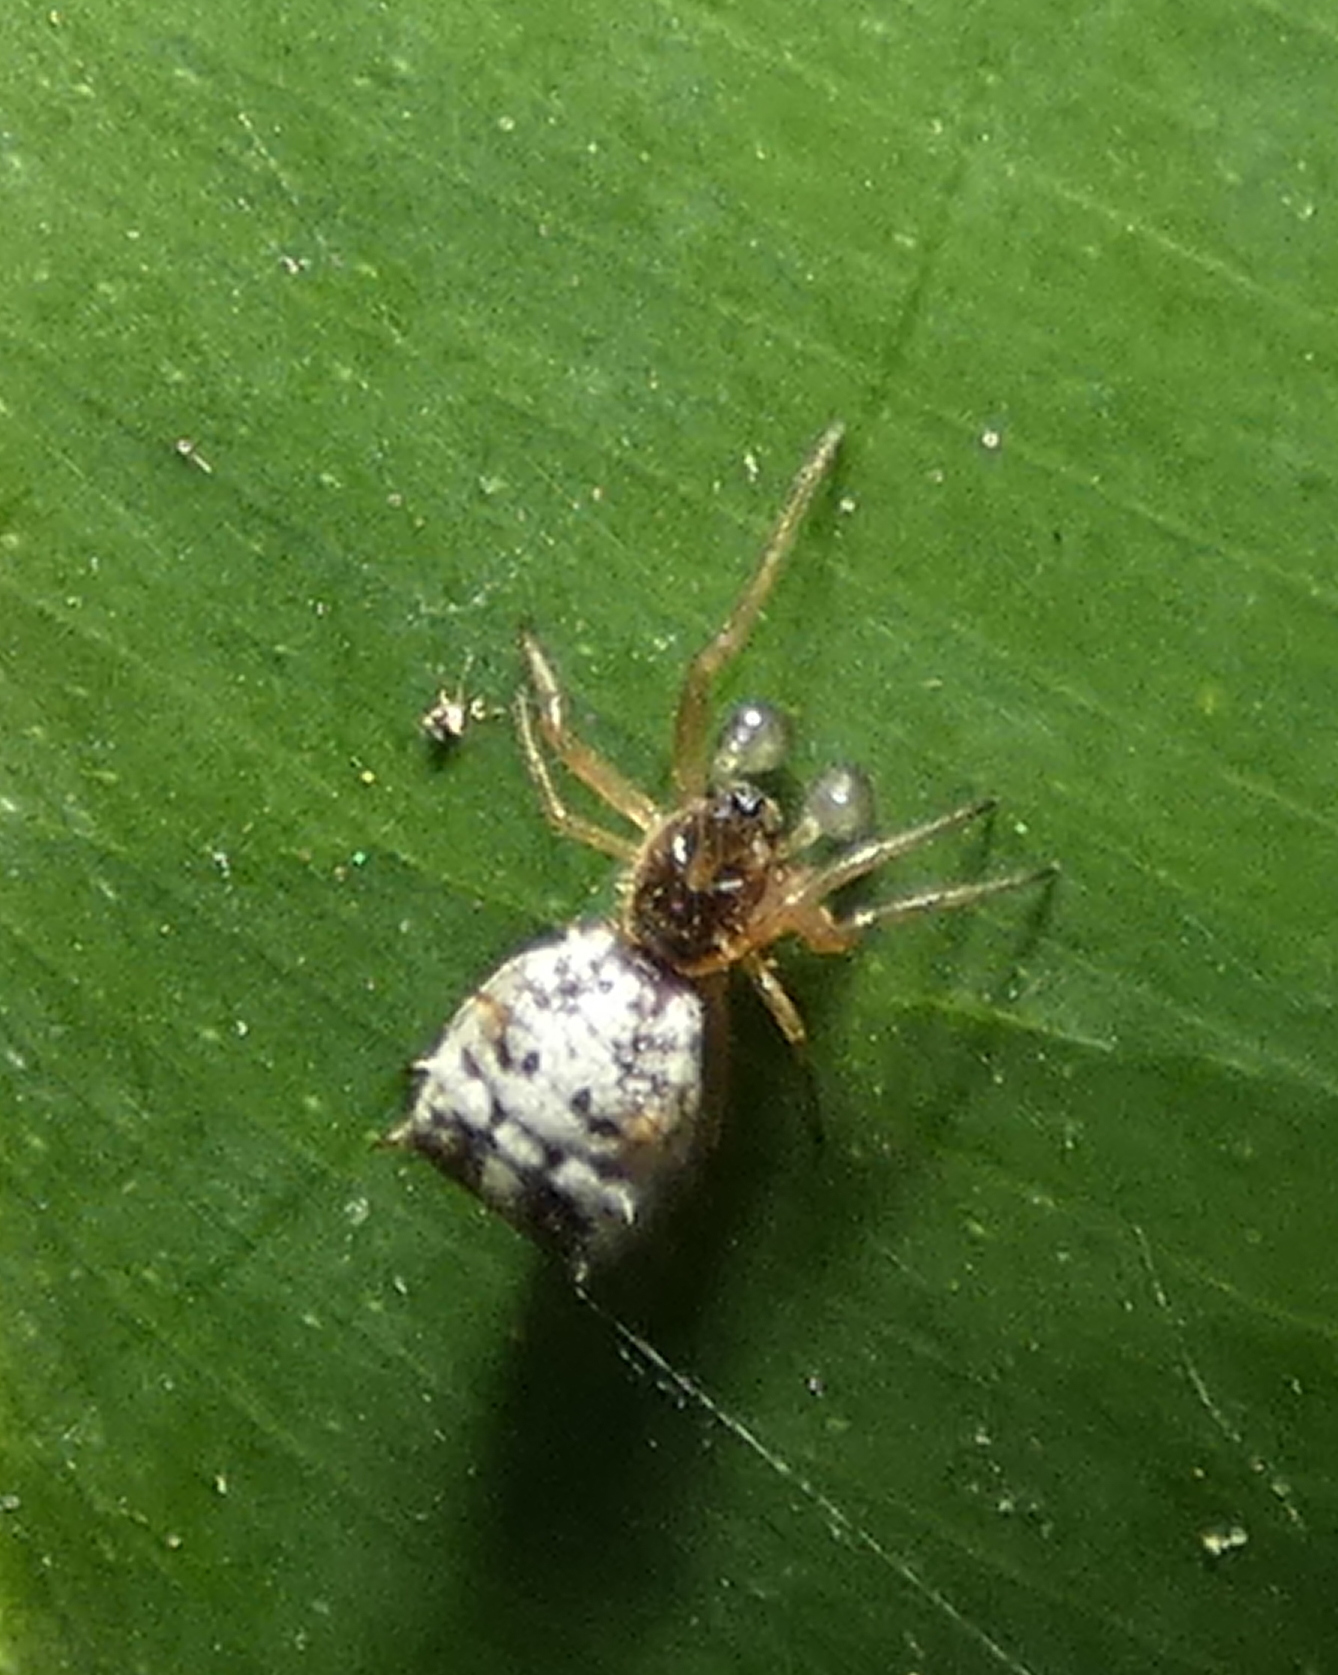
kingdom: Animalia
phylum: Arthropoda
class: Arachnida
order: Araneae
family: Araneidae
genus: Micrathena
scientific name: Micrathena picta
